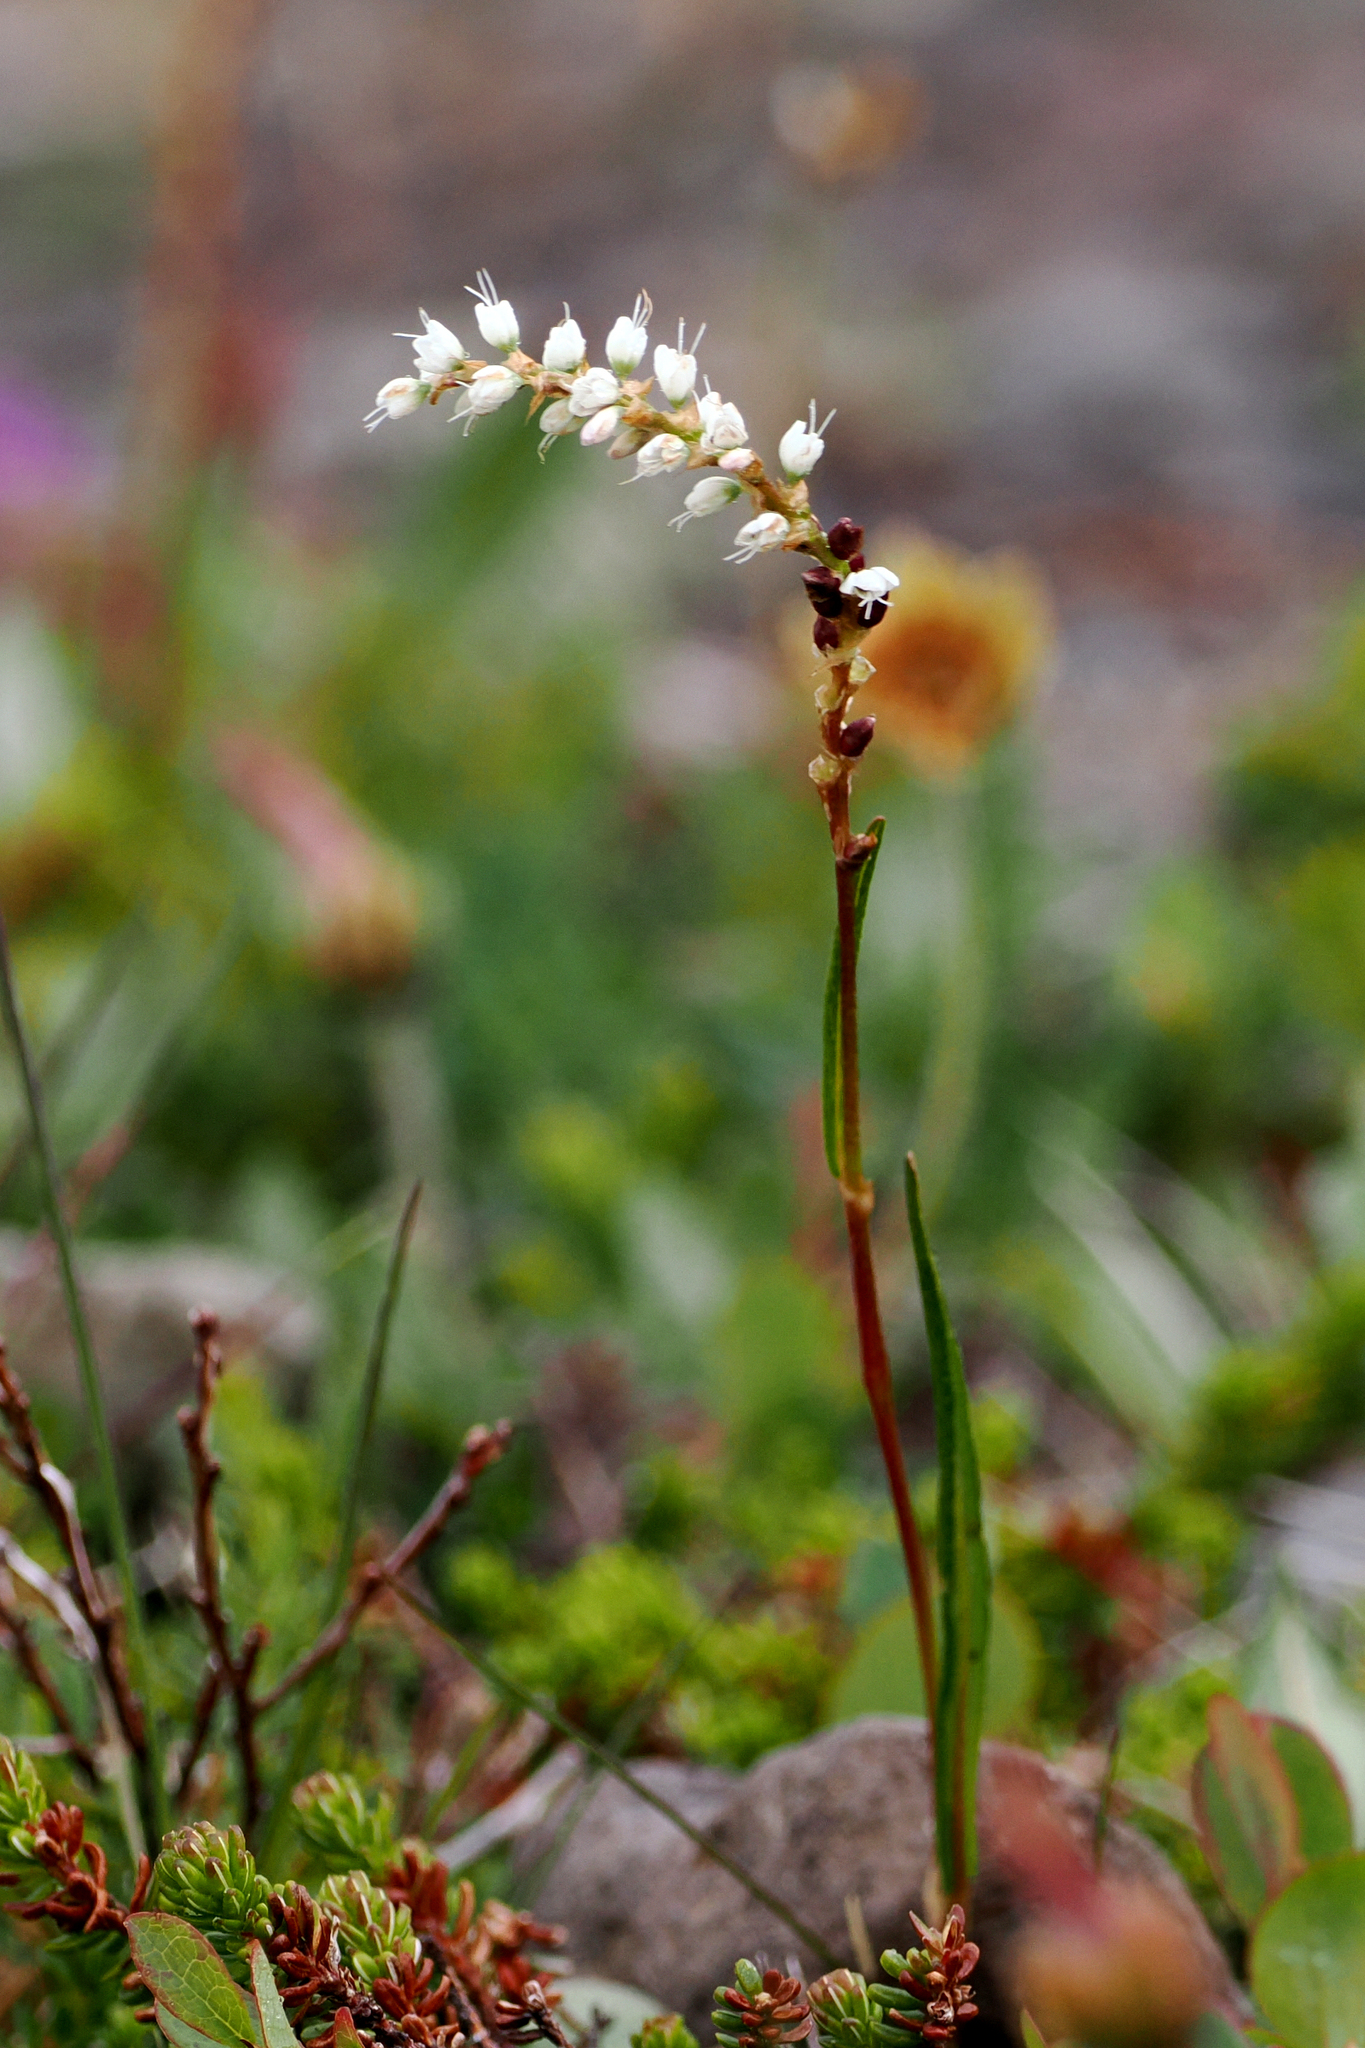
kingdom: Plantae
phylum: Tracheophyta
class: Magnoliopsida
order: Caryophyllales
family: Polygonaceae
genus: Bistorta
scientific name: Bistorta vivipara
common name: Alpine bistort
